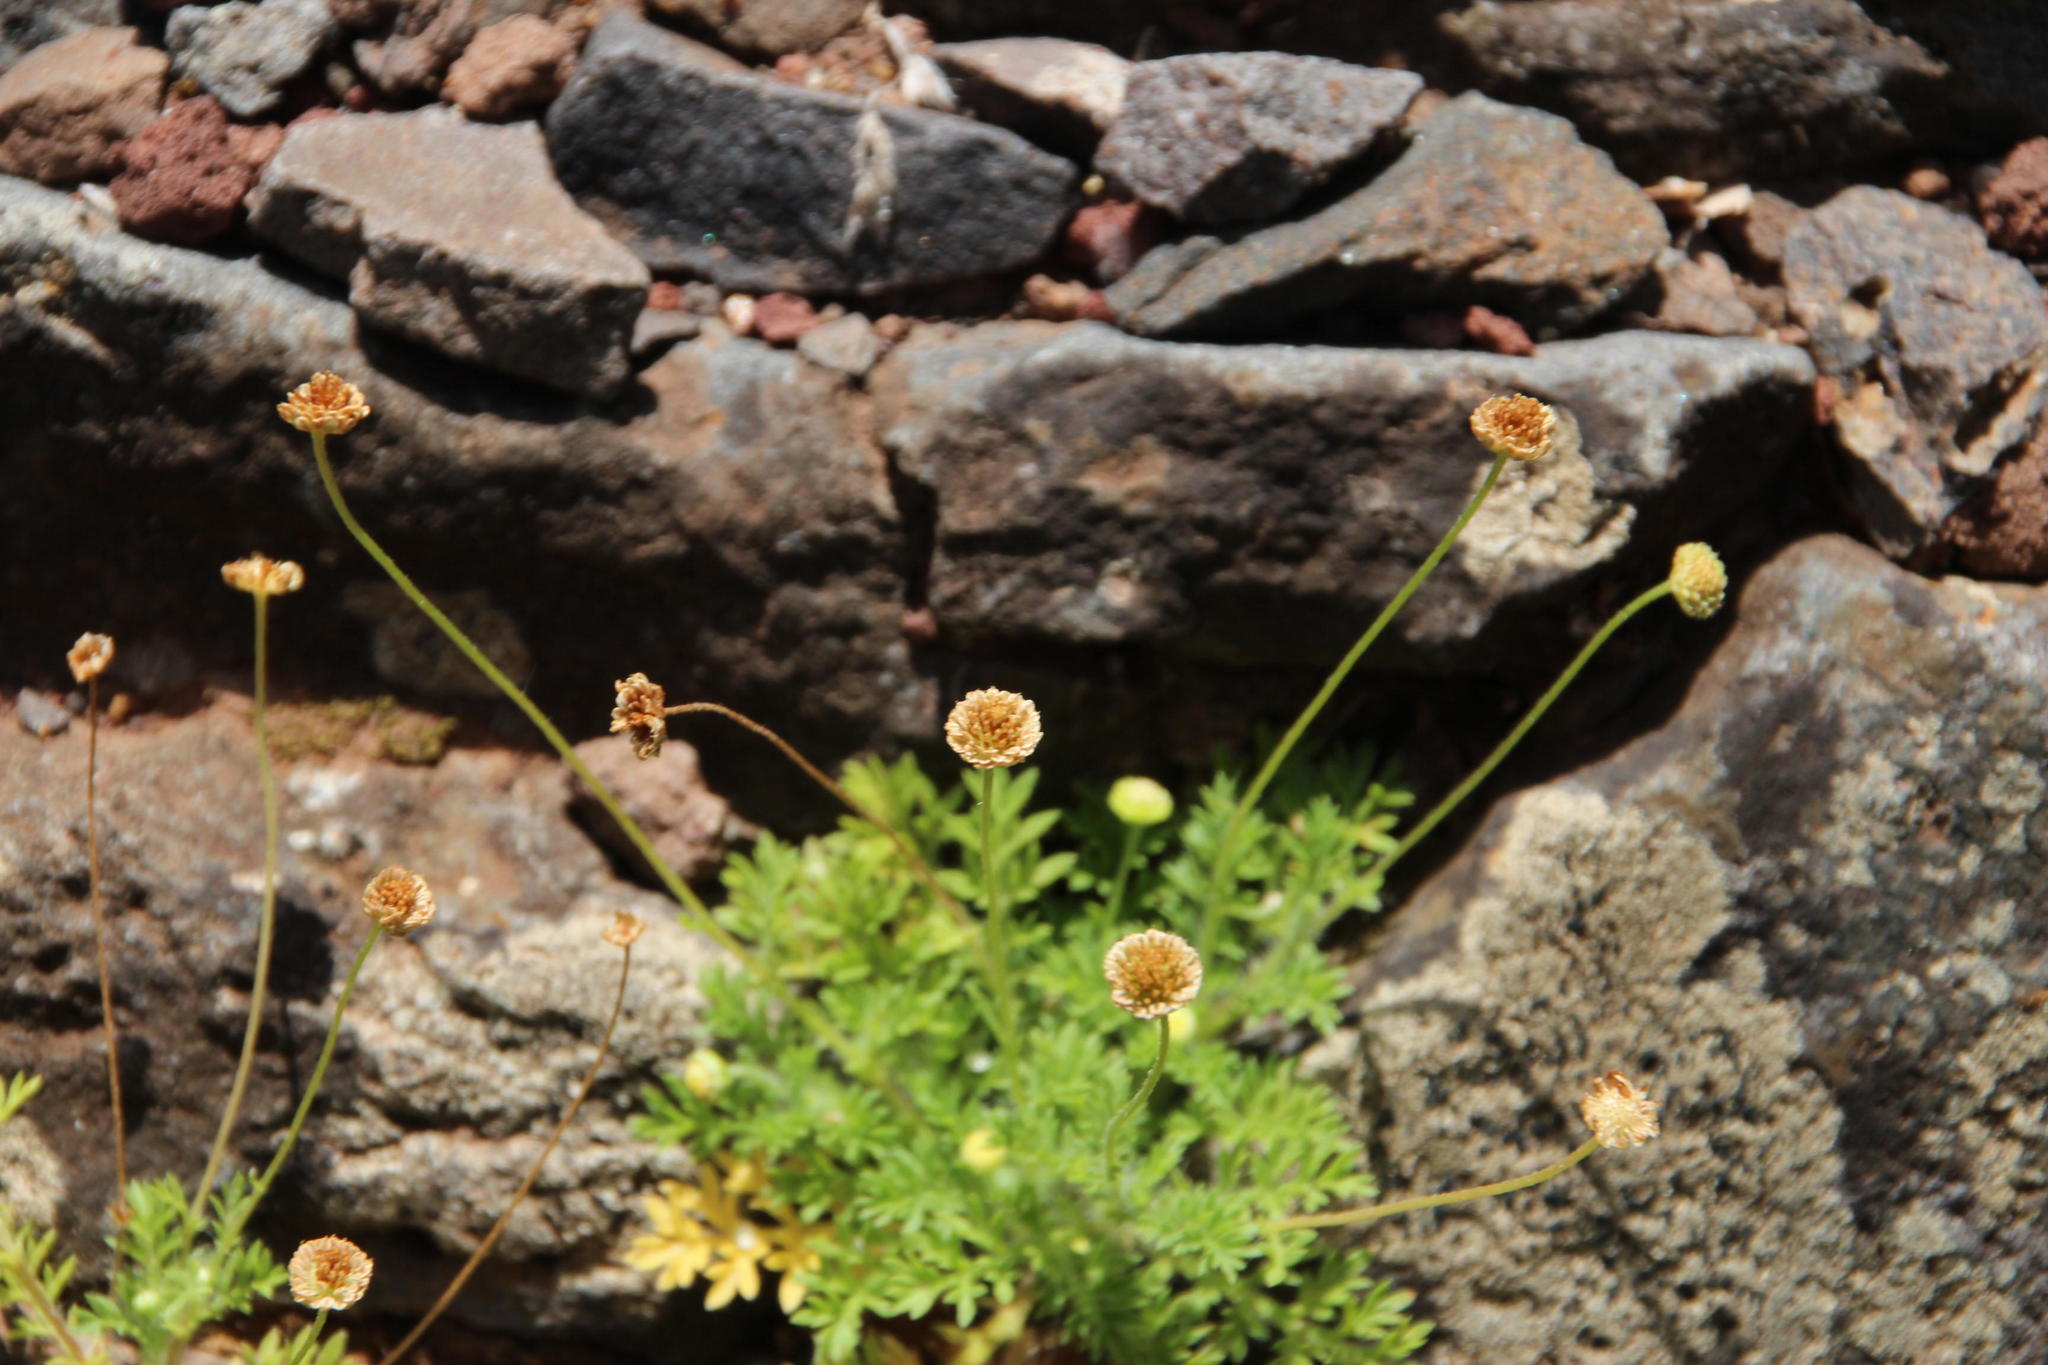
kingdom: Plantae
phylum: Tracheophyta
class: Magnoliopsida
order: Asterales
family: Asteraceae
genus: Cotula
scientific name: Cotula australis
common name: Australian waterbuttons
